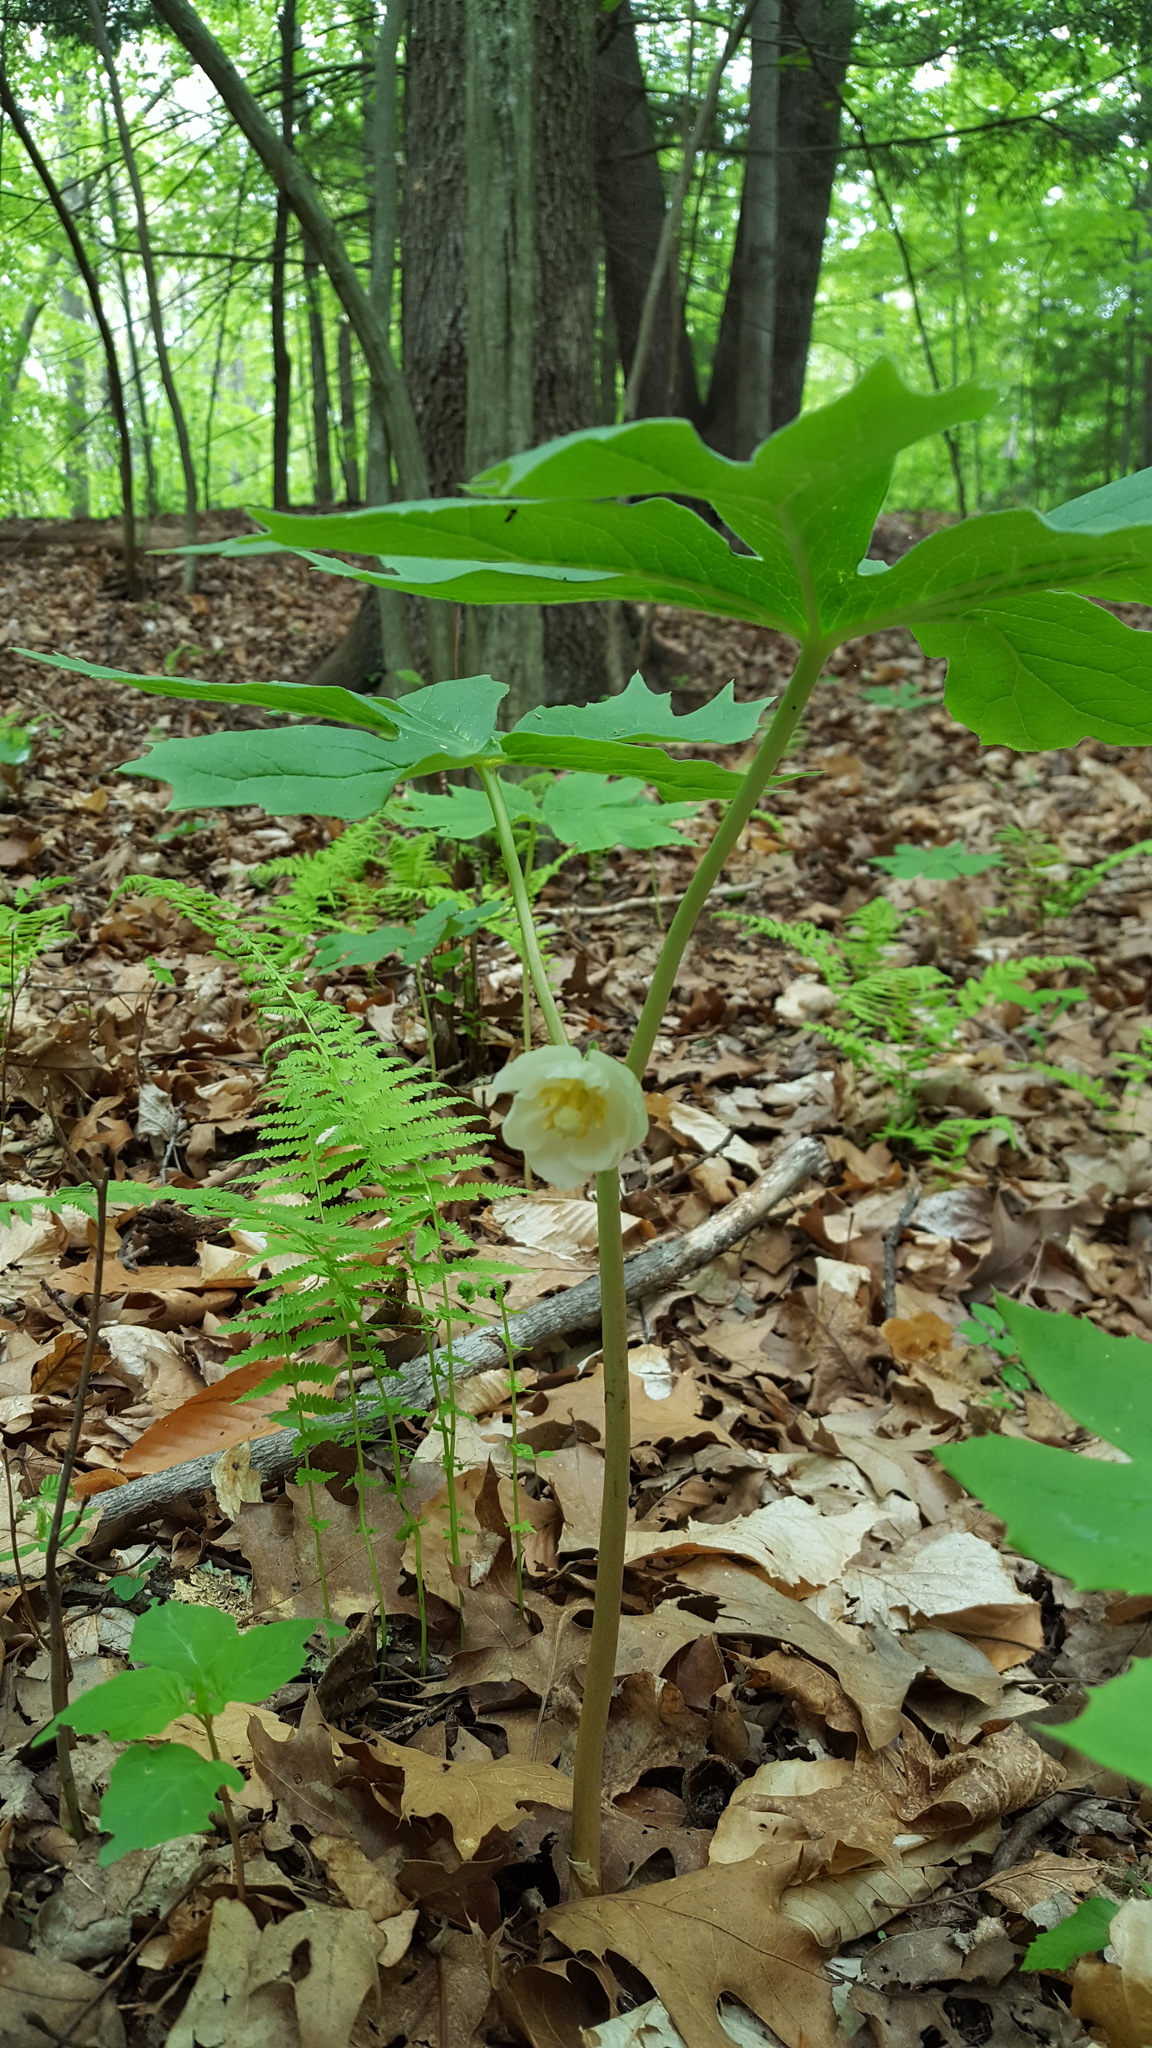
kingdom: Plantae
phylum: Tracheophyta
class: Magnoliopsida
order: Ranunculales
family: Berberidaceae
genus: Podophyllum
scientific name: Podophyllum peltatum
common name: Wild mandrake
